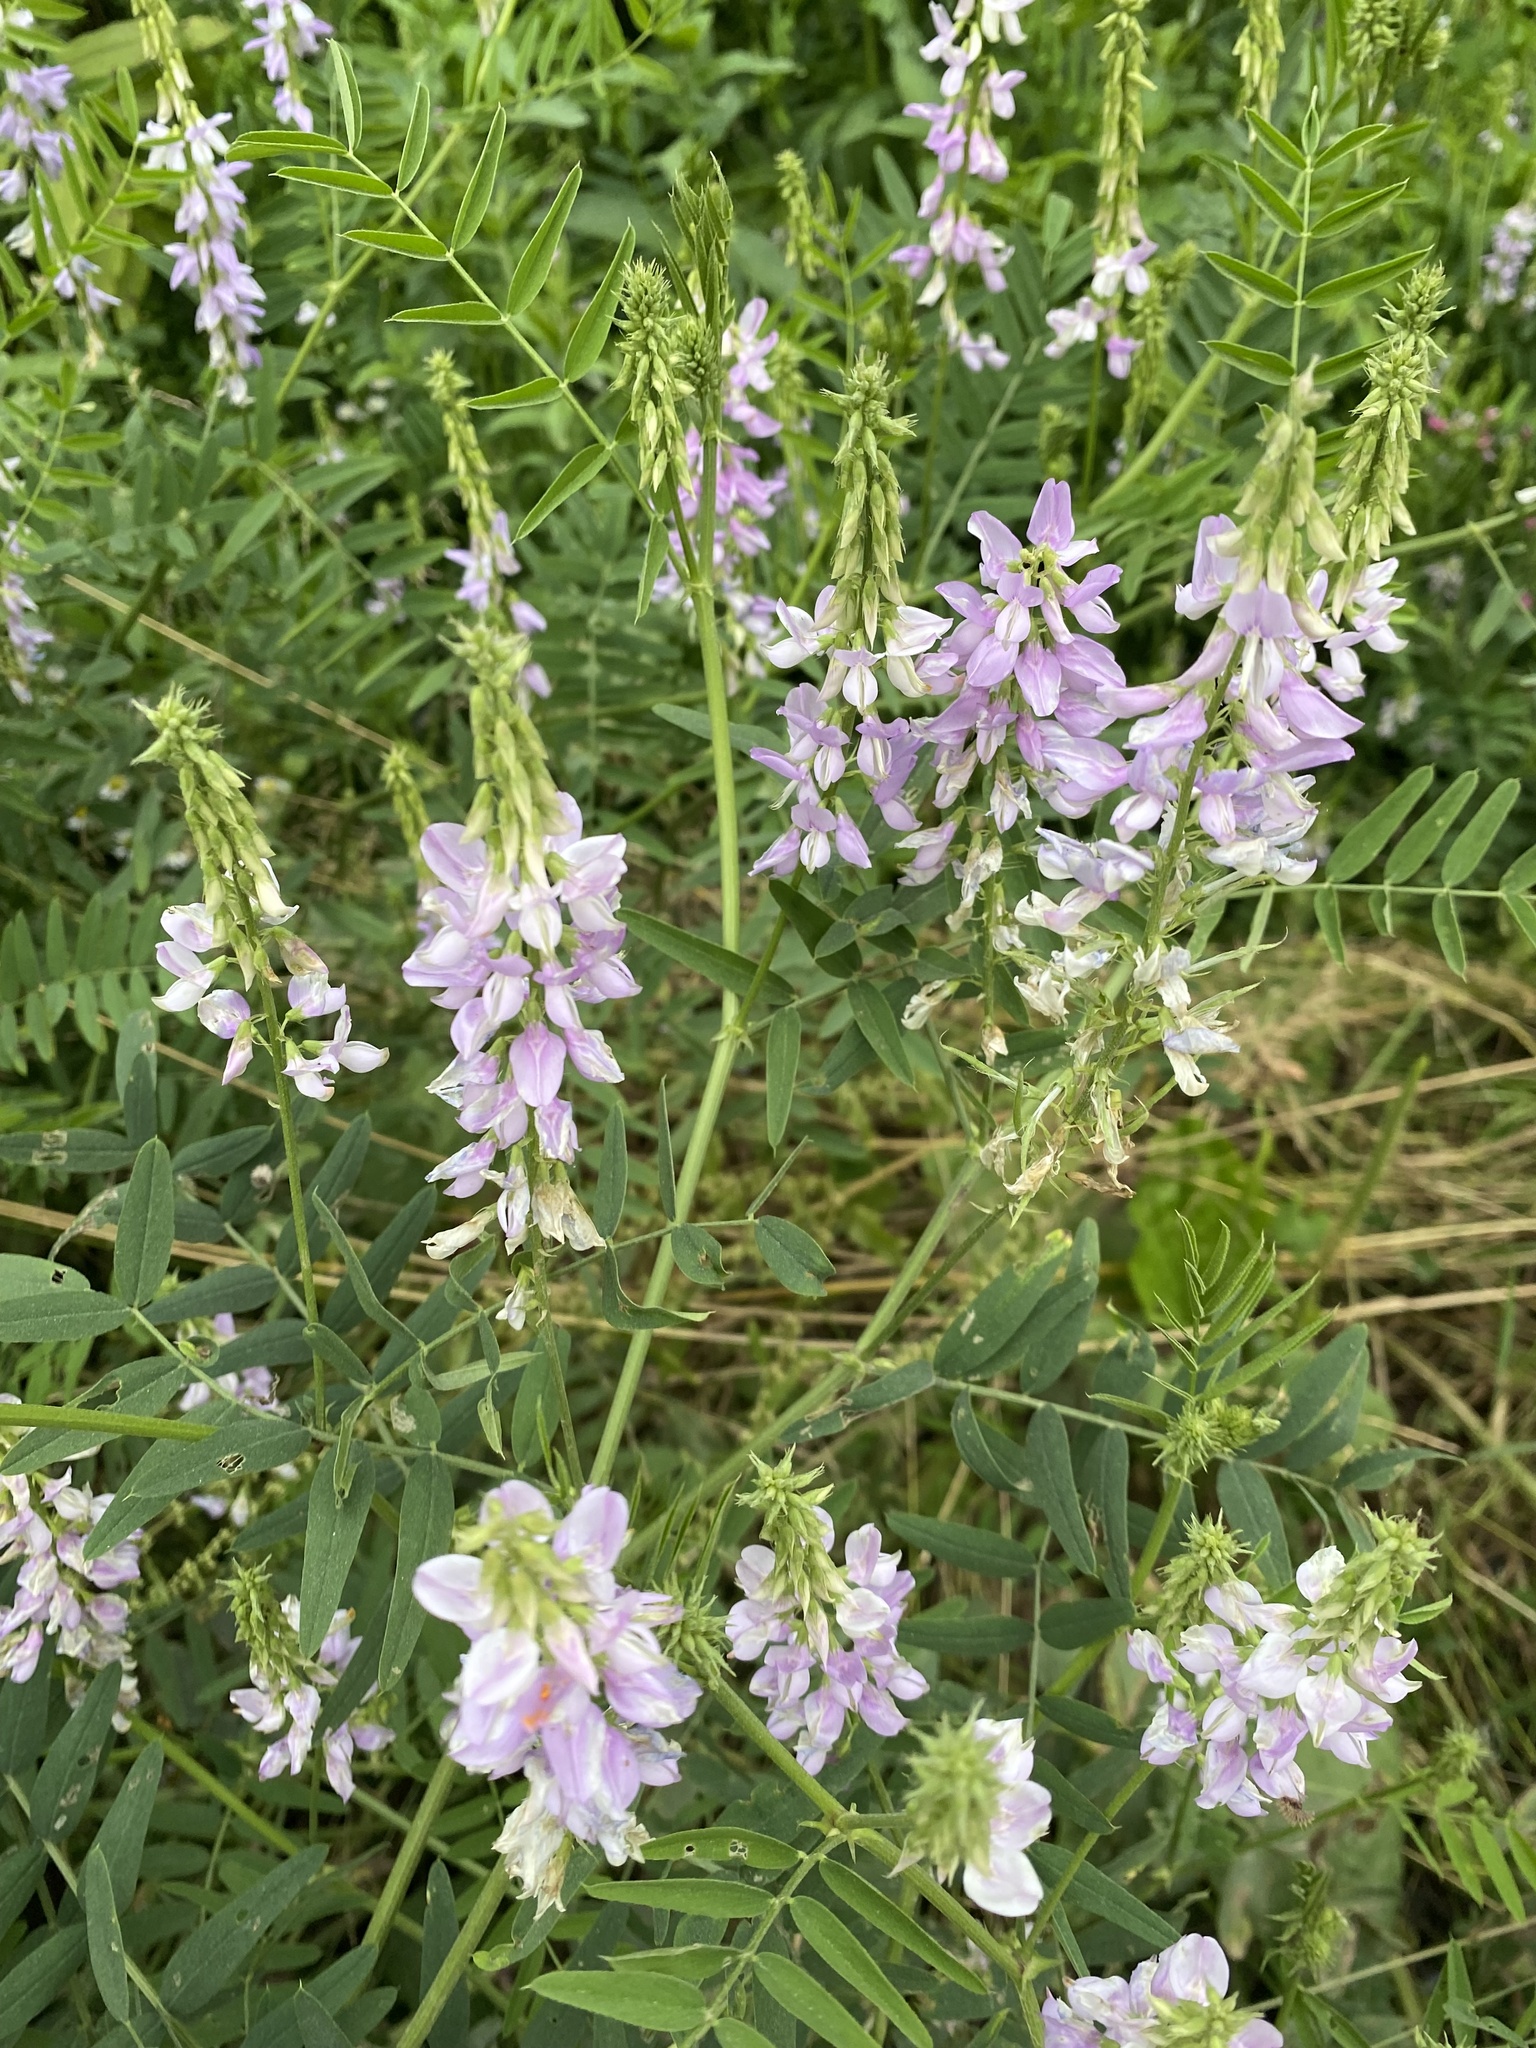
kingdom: Plantae
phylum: Tracheophyta
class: Magnoliopsida
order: Fabales
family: Fabaceae
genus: Galega
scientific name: Galega officinalis
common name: Goat's-rue
